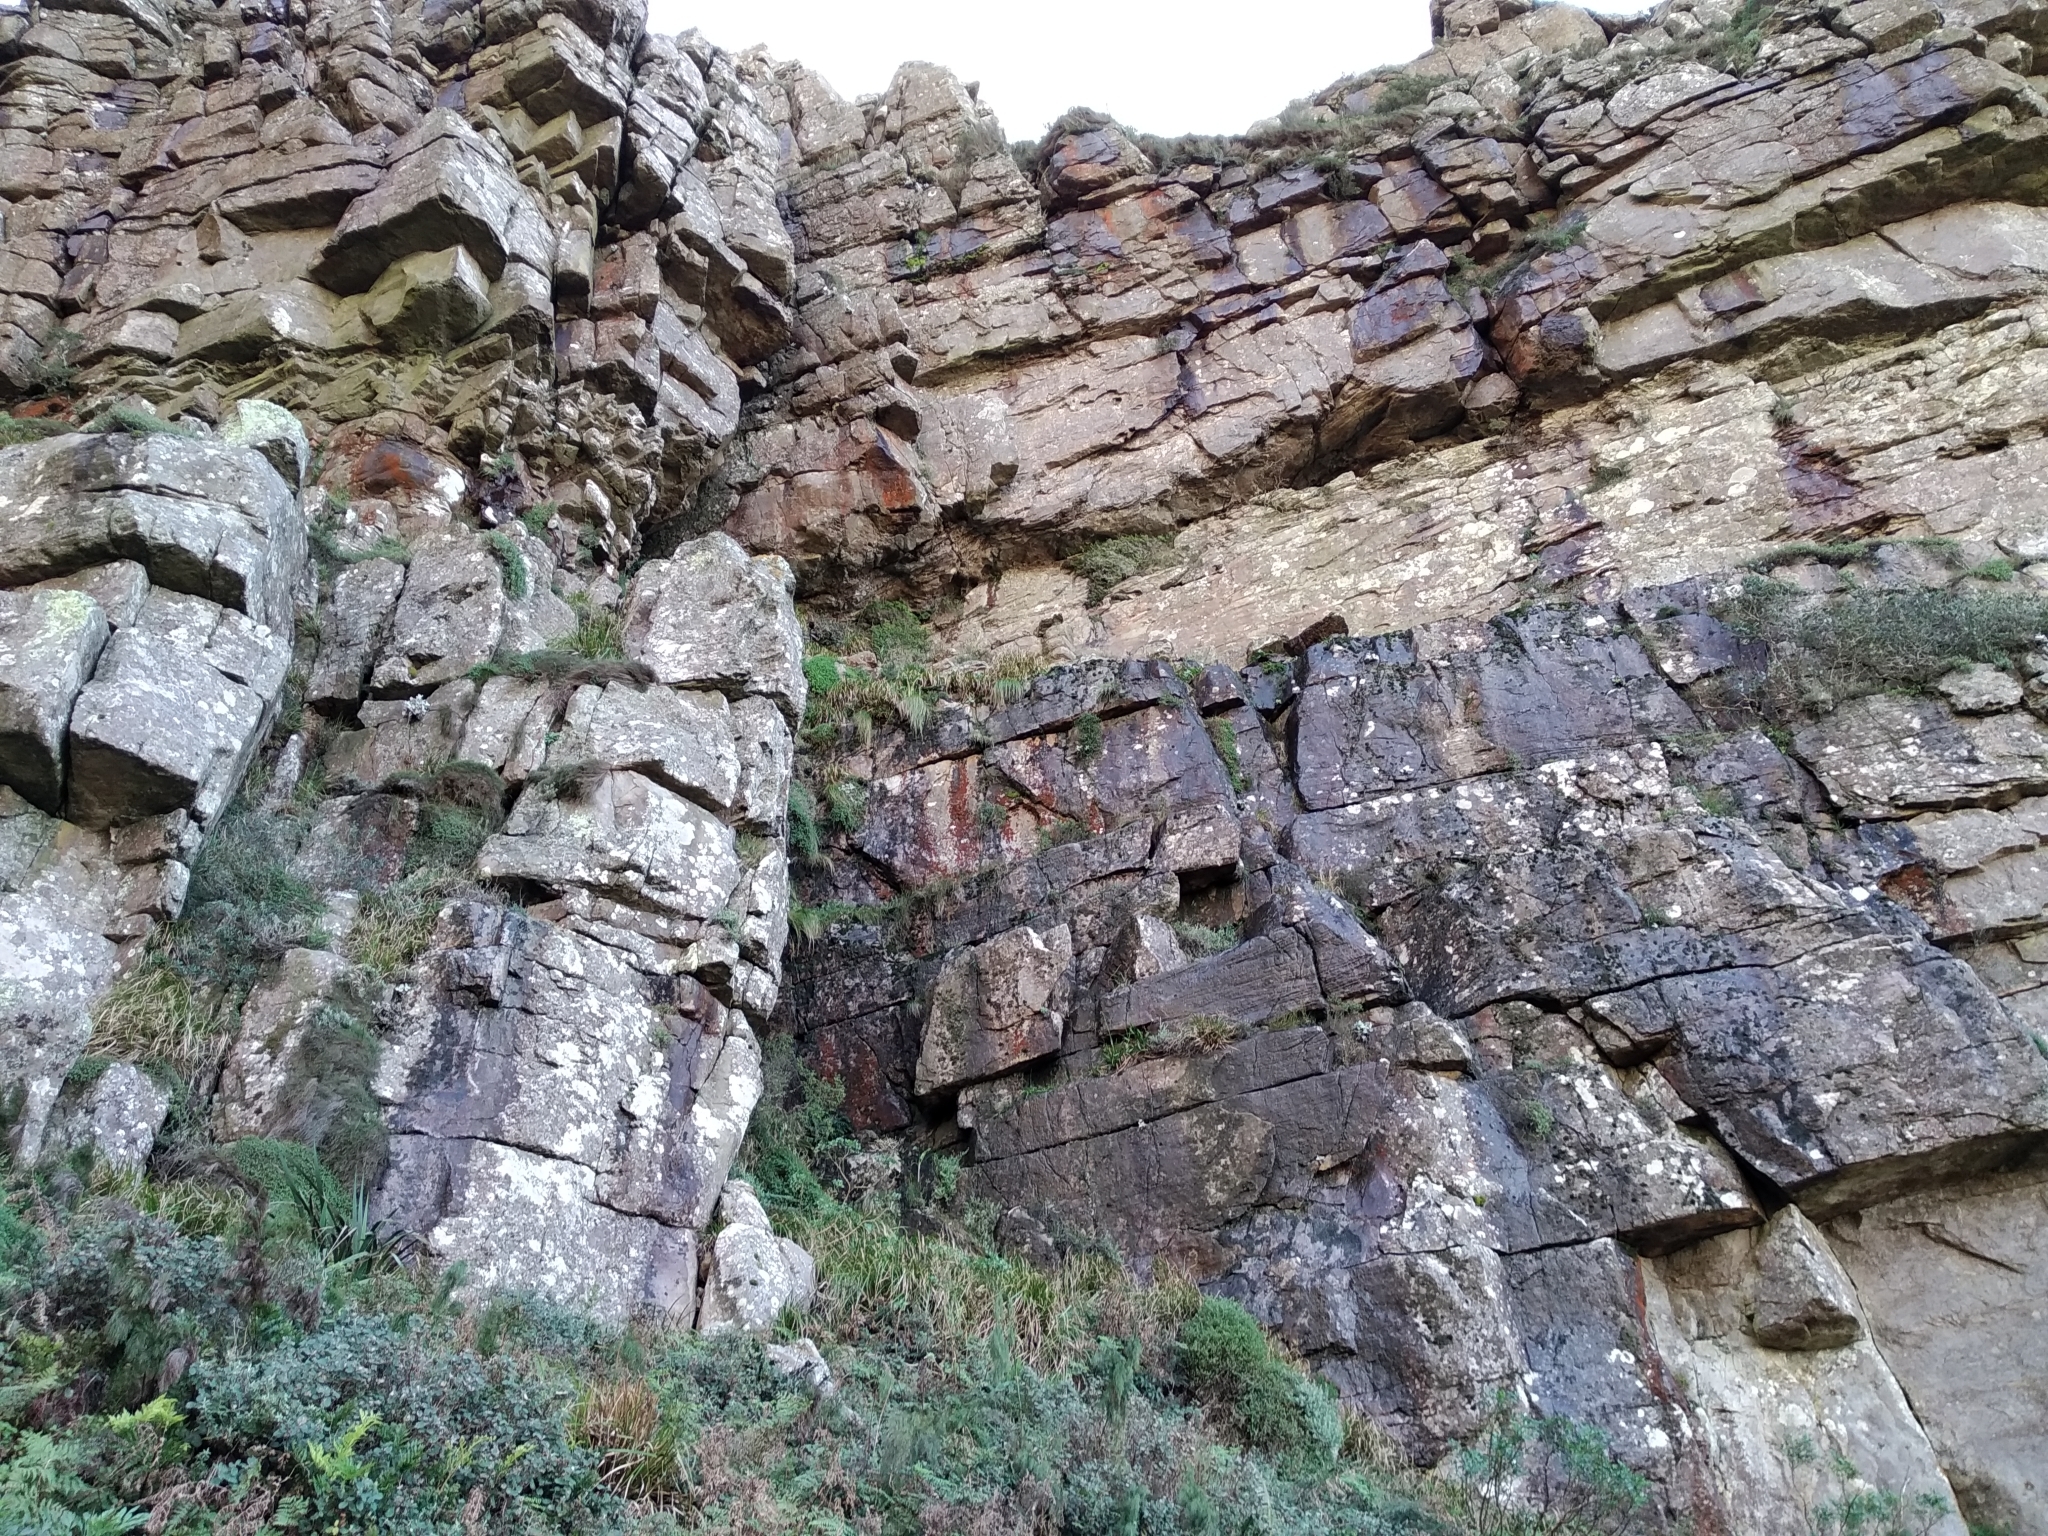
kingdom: Animalia
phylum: Chordata
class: Amphibia
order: Anura
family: Pyxicephalidae
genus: Arthroleptella
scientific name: Arthroleptella lightfooti
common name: Cape peninsula chirping frog
